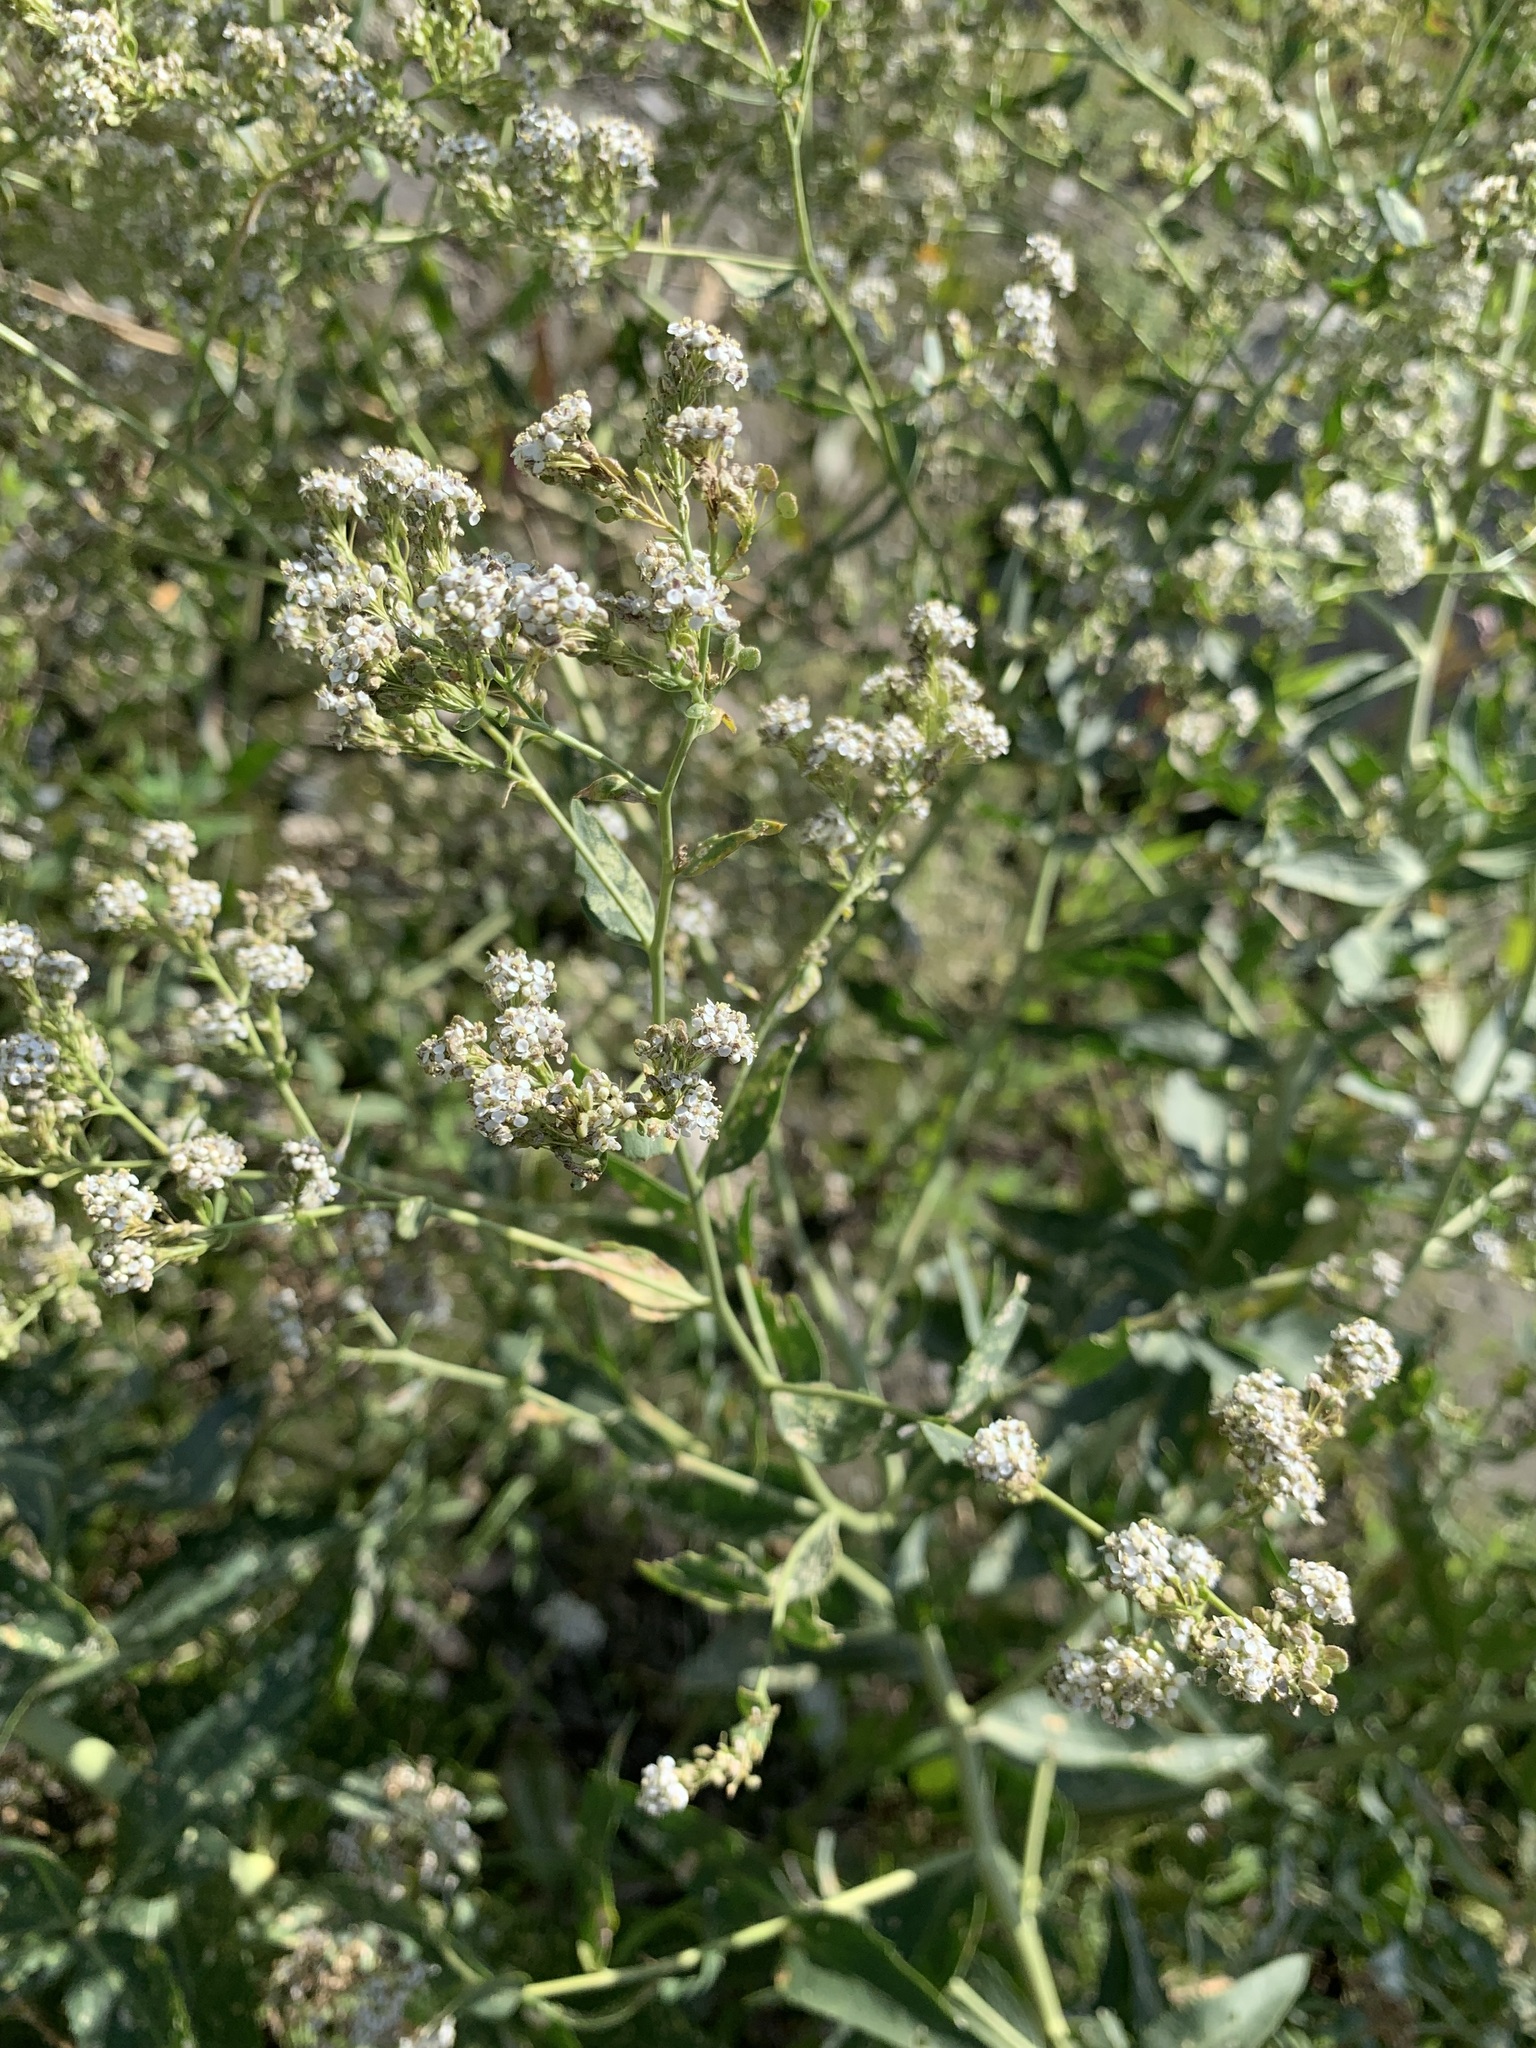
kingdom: Plantae
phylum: Tracheophyta
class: Magnoliopsida
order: Brassicales
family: Brassicaceae
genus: Lepidium
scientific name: Lepidium latifolium
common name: Dittander
